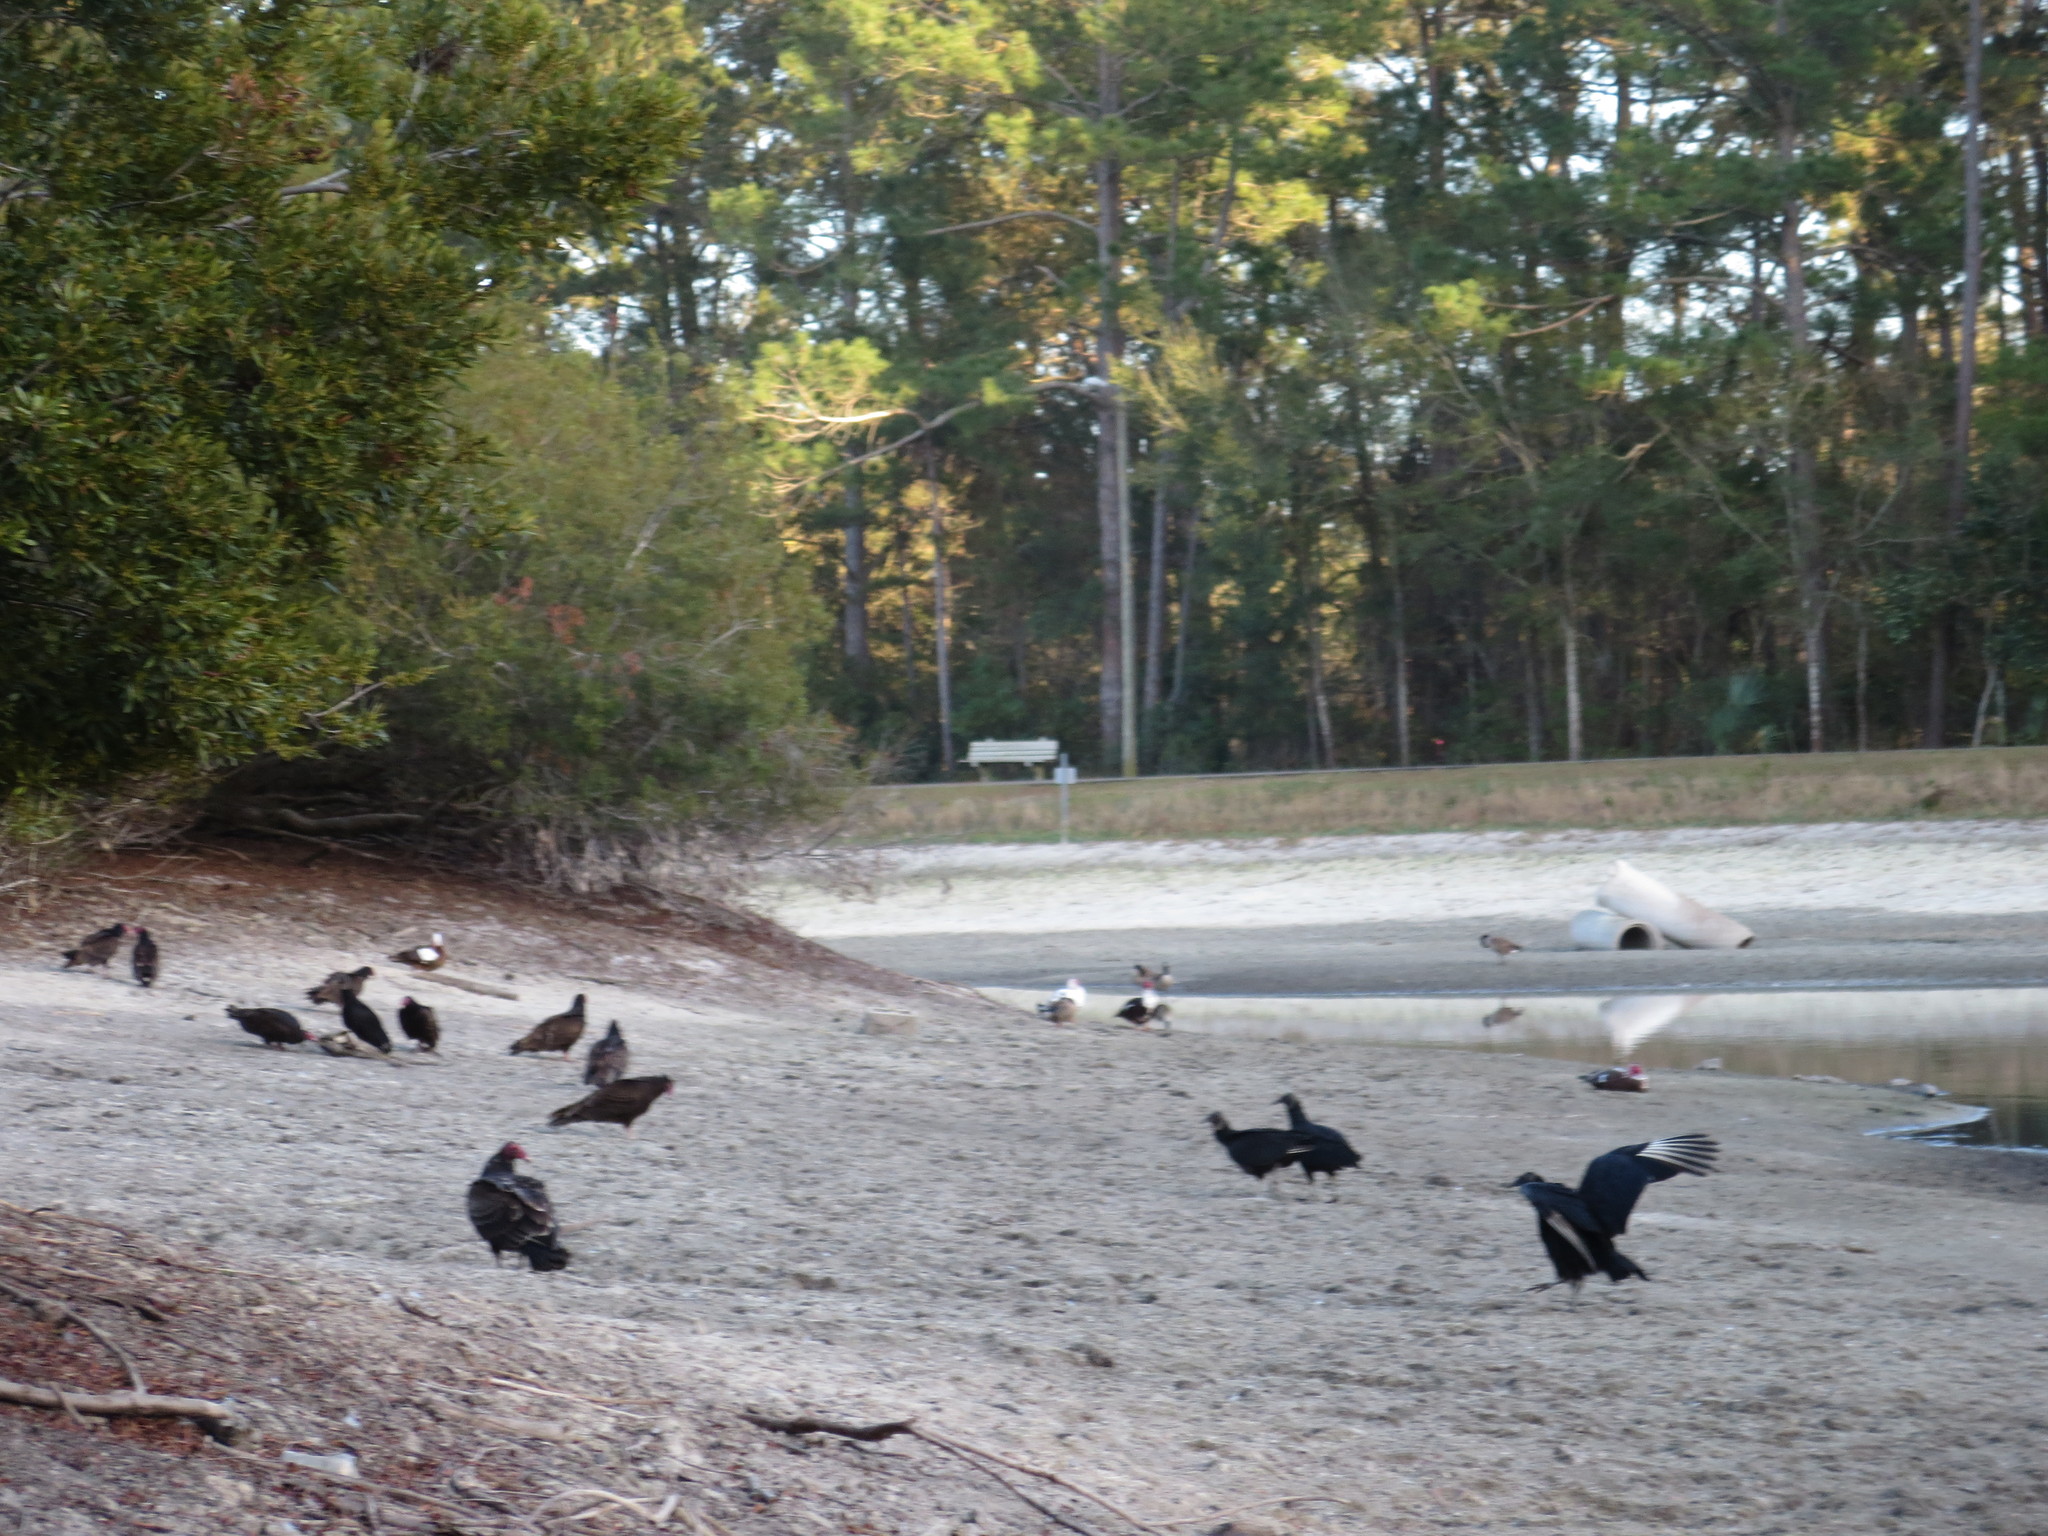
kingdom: Animalia
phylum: Chordata
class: Aves
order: Accipitriformes
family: Cathartidae
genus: Coragyps
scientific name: Coragyps atratus
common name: Black vulture
